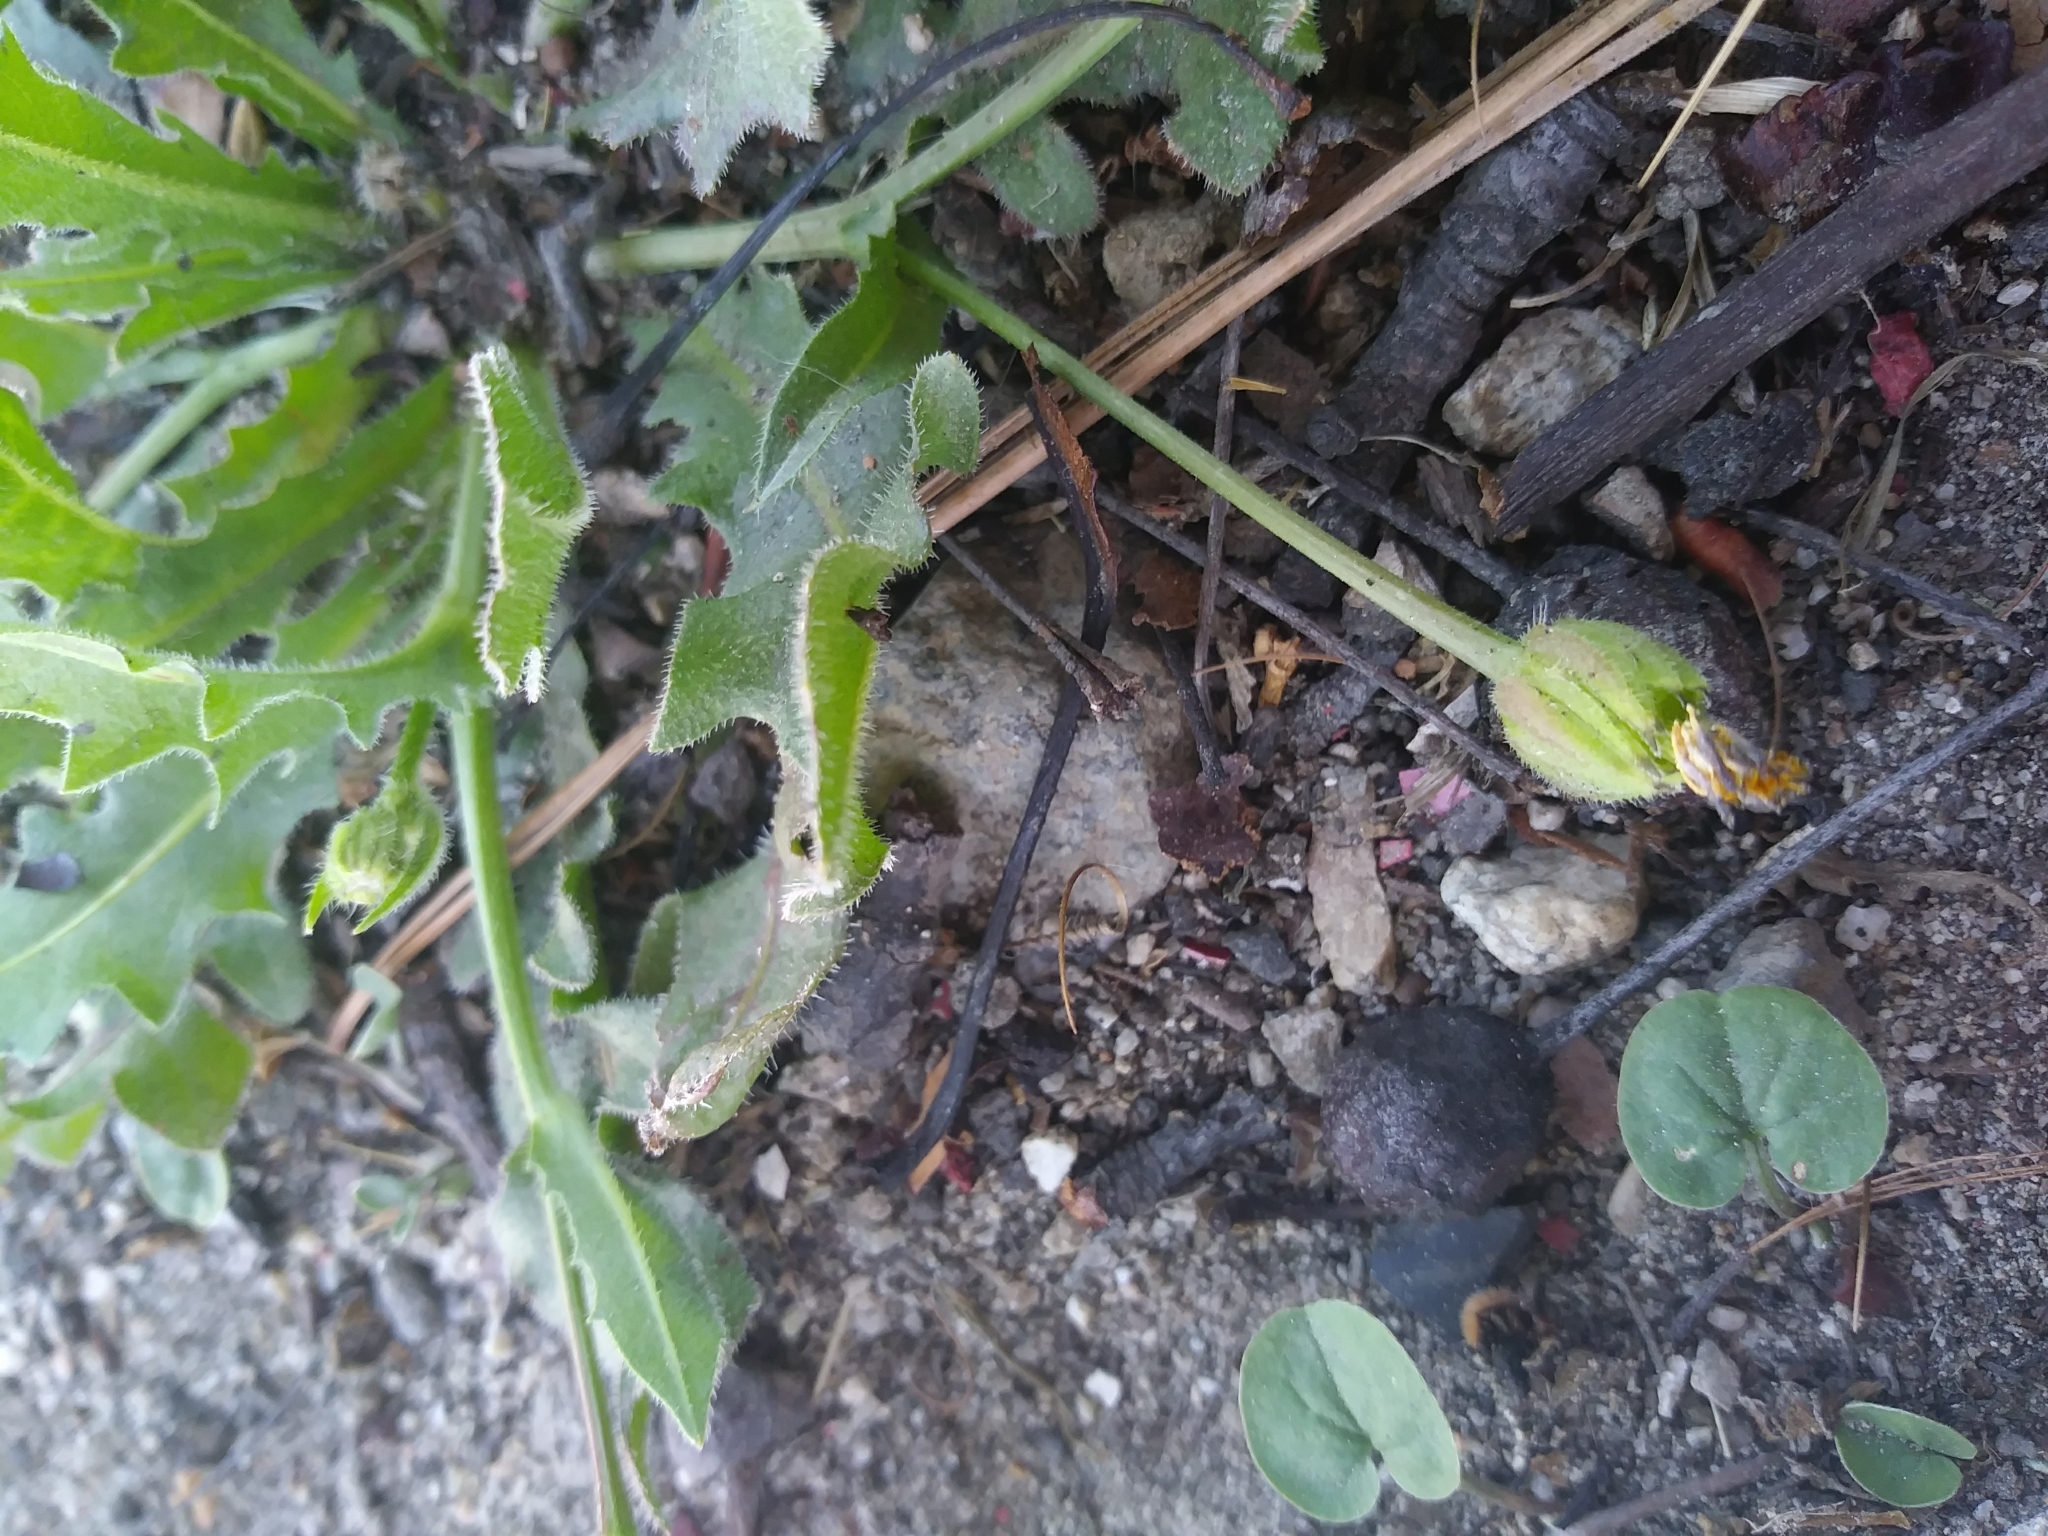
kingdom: Plantae
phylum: Tracheophyta
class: Magnoliopsida
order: Asterales
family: Asteraceae
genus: Hedypnois
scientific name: Hedypnois rhagadioloides
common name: Cretan weed
